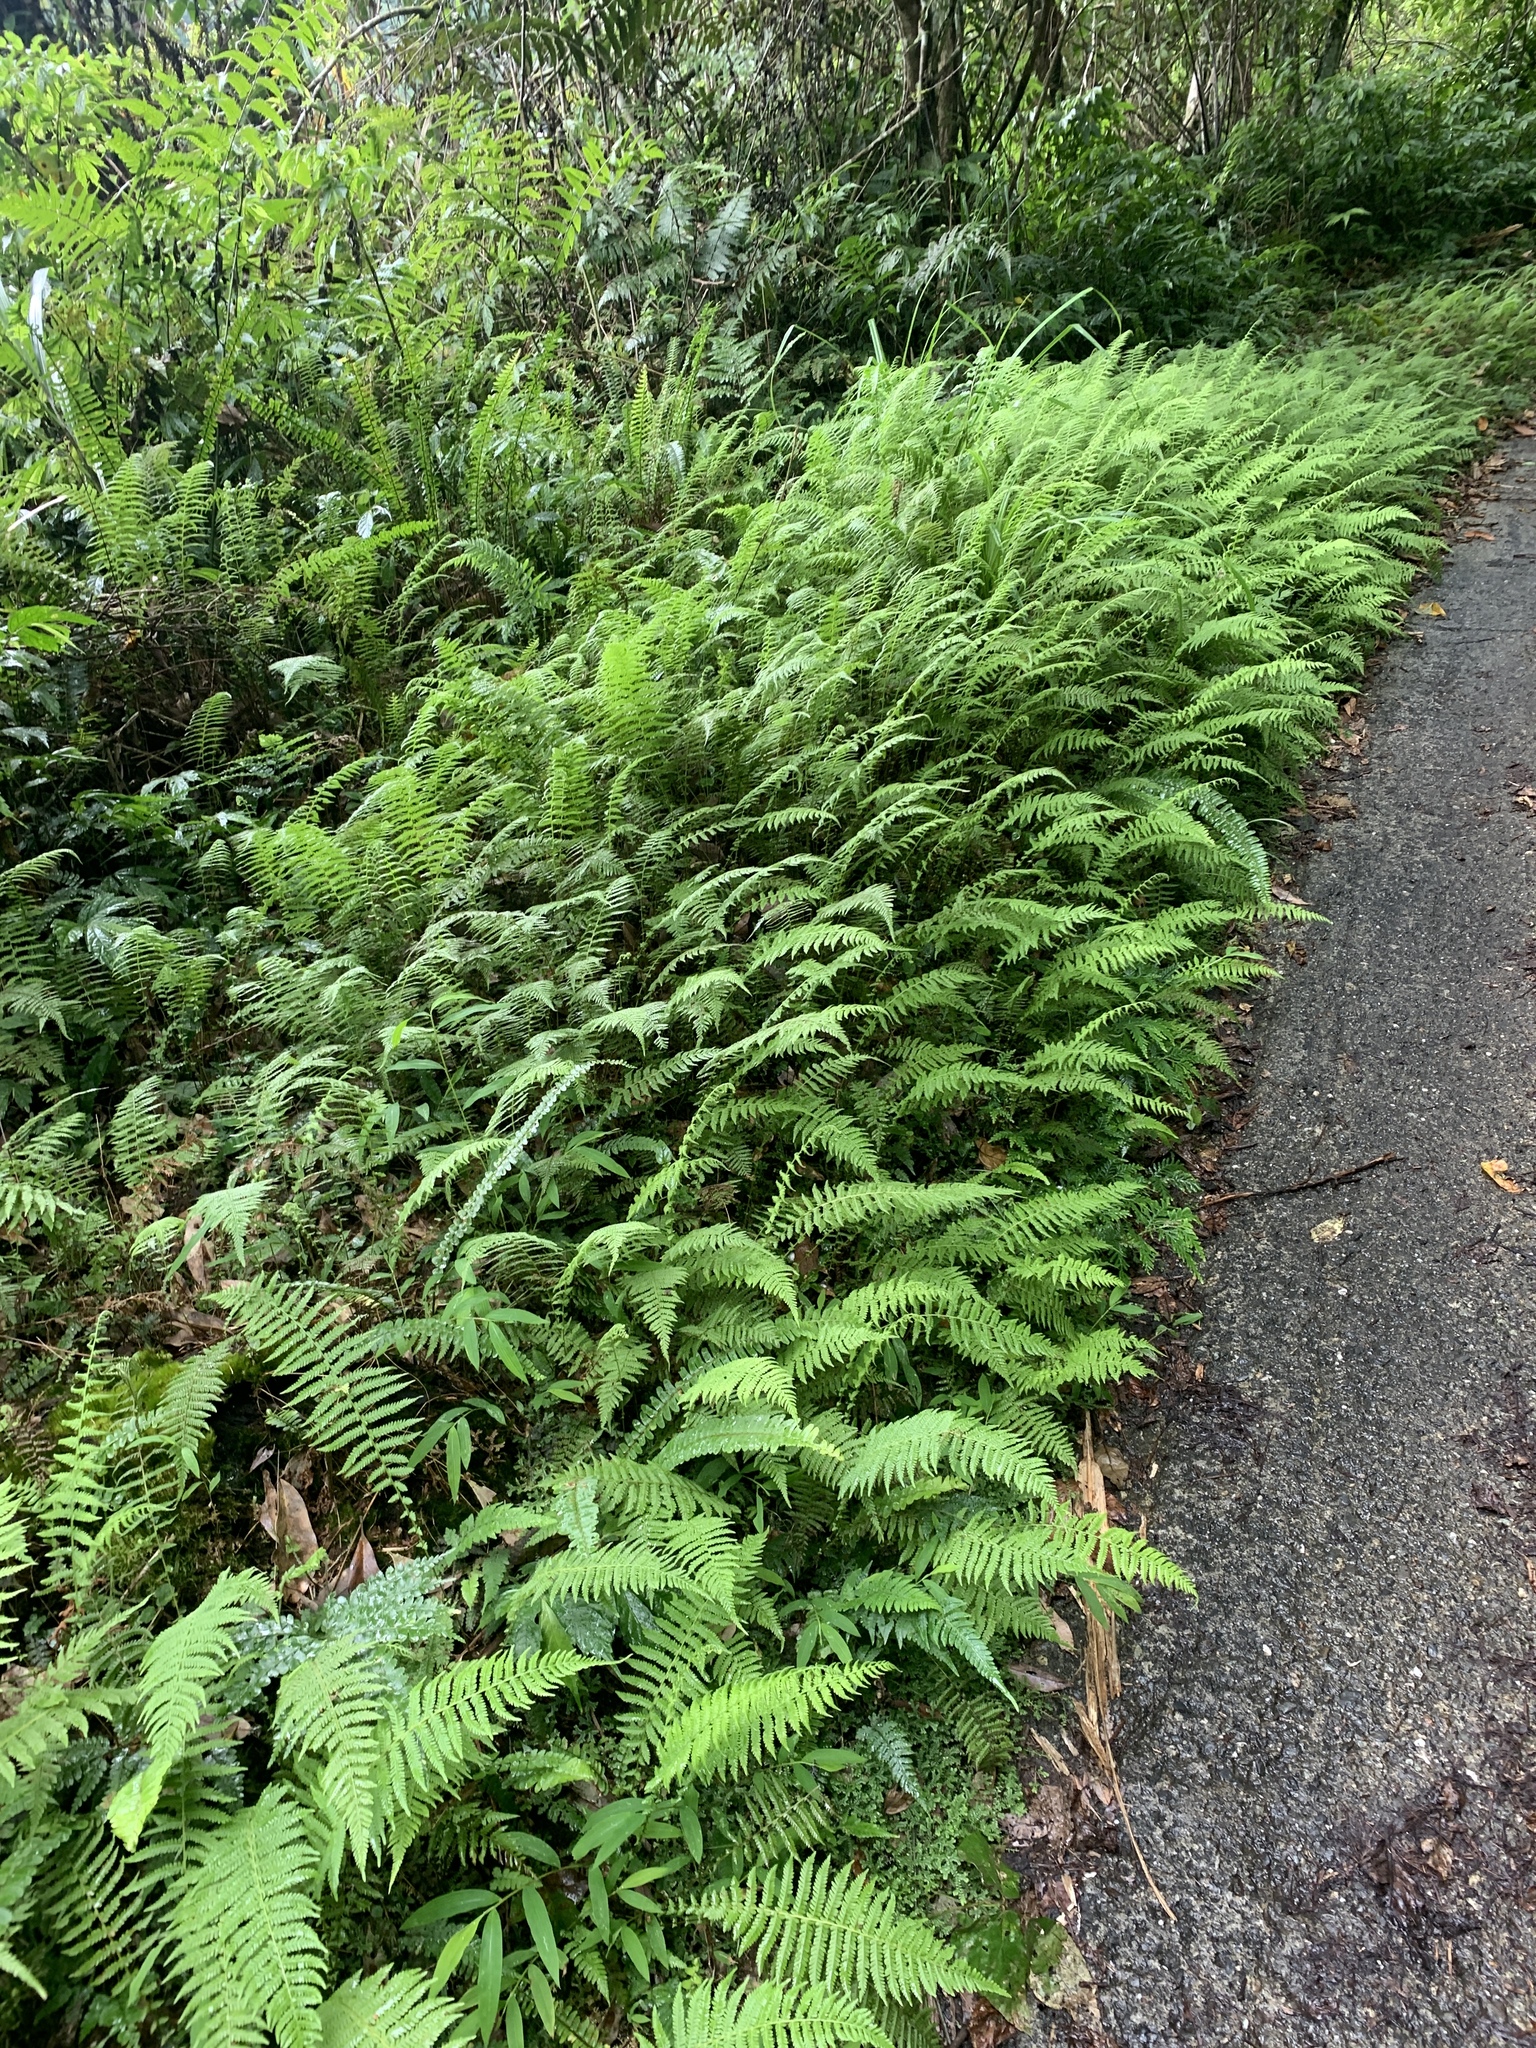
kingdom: Plantae
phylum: Tracheophyta
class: Polypodiopsida
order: Polypodiales
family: Thelypteridaceae
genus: Amauropelta
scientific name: Amauropelta beddomei
